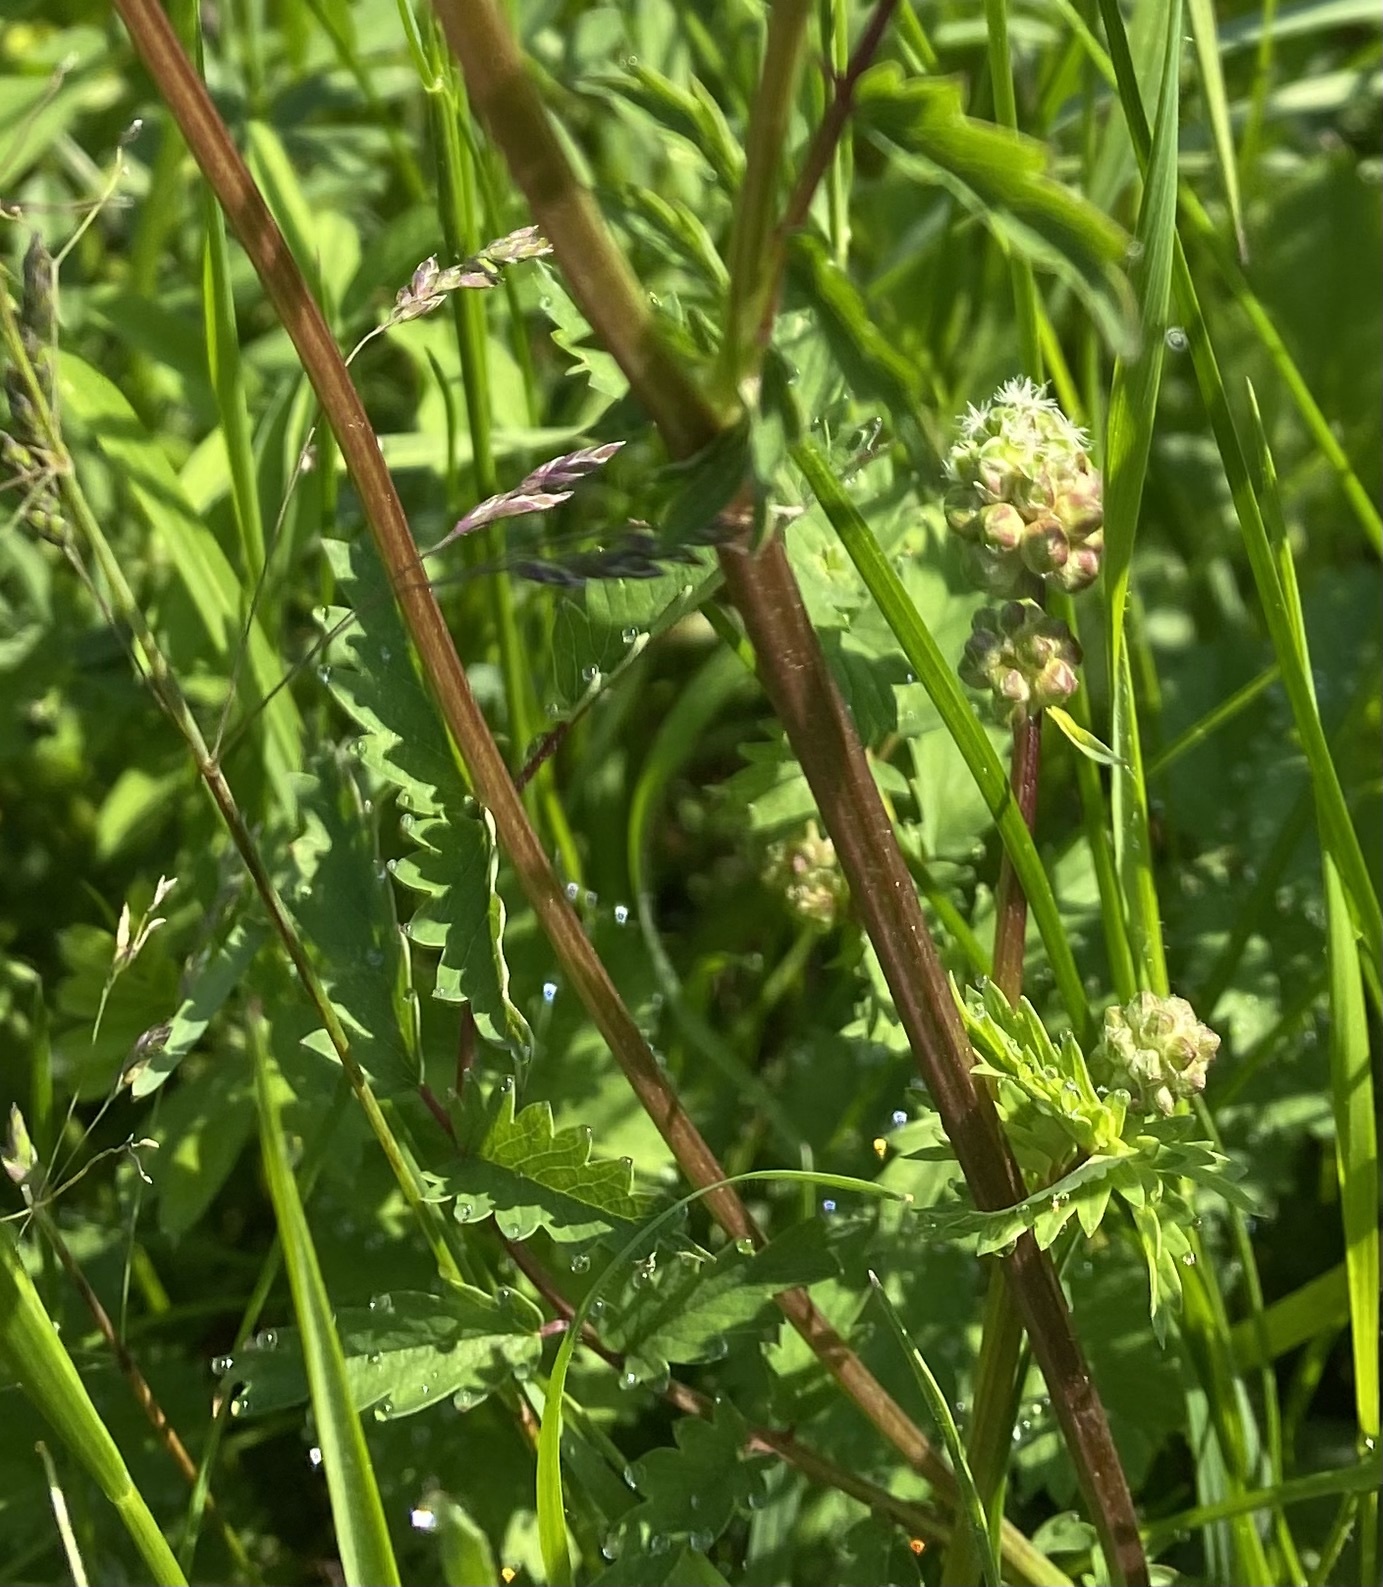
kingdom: Plantae
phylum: Tracheophyta
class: Magnoliopsida
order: Rosales
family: Rosaceae
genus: Poterium
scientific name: Poterium sanguisorba
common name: Salad burnet
